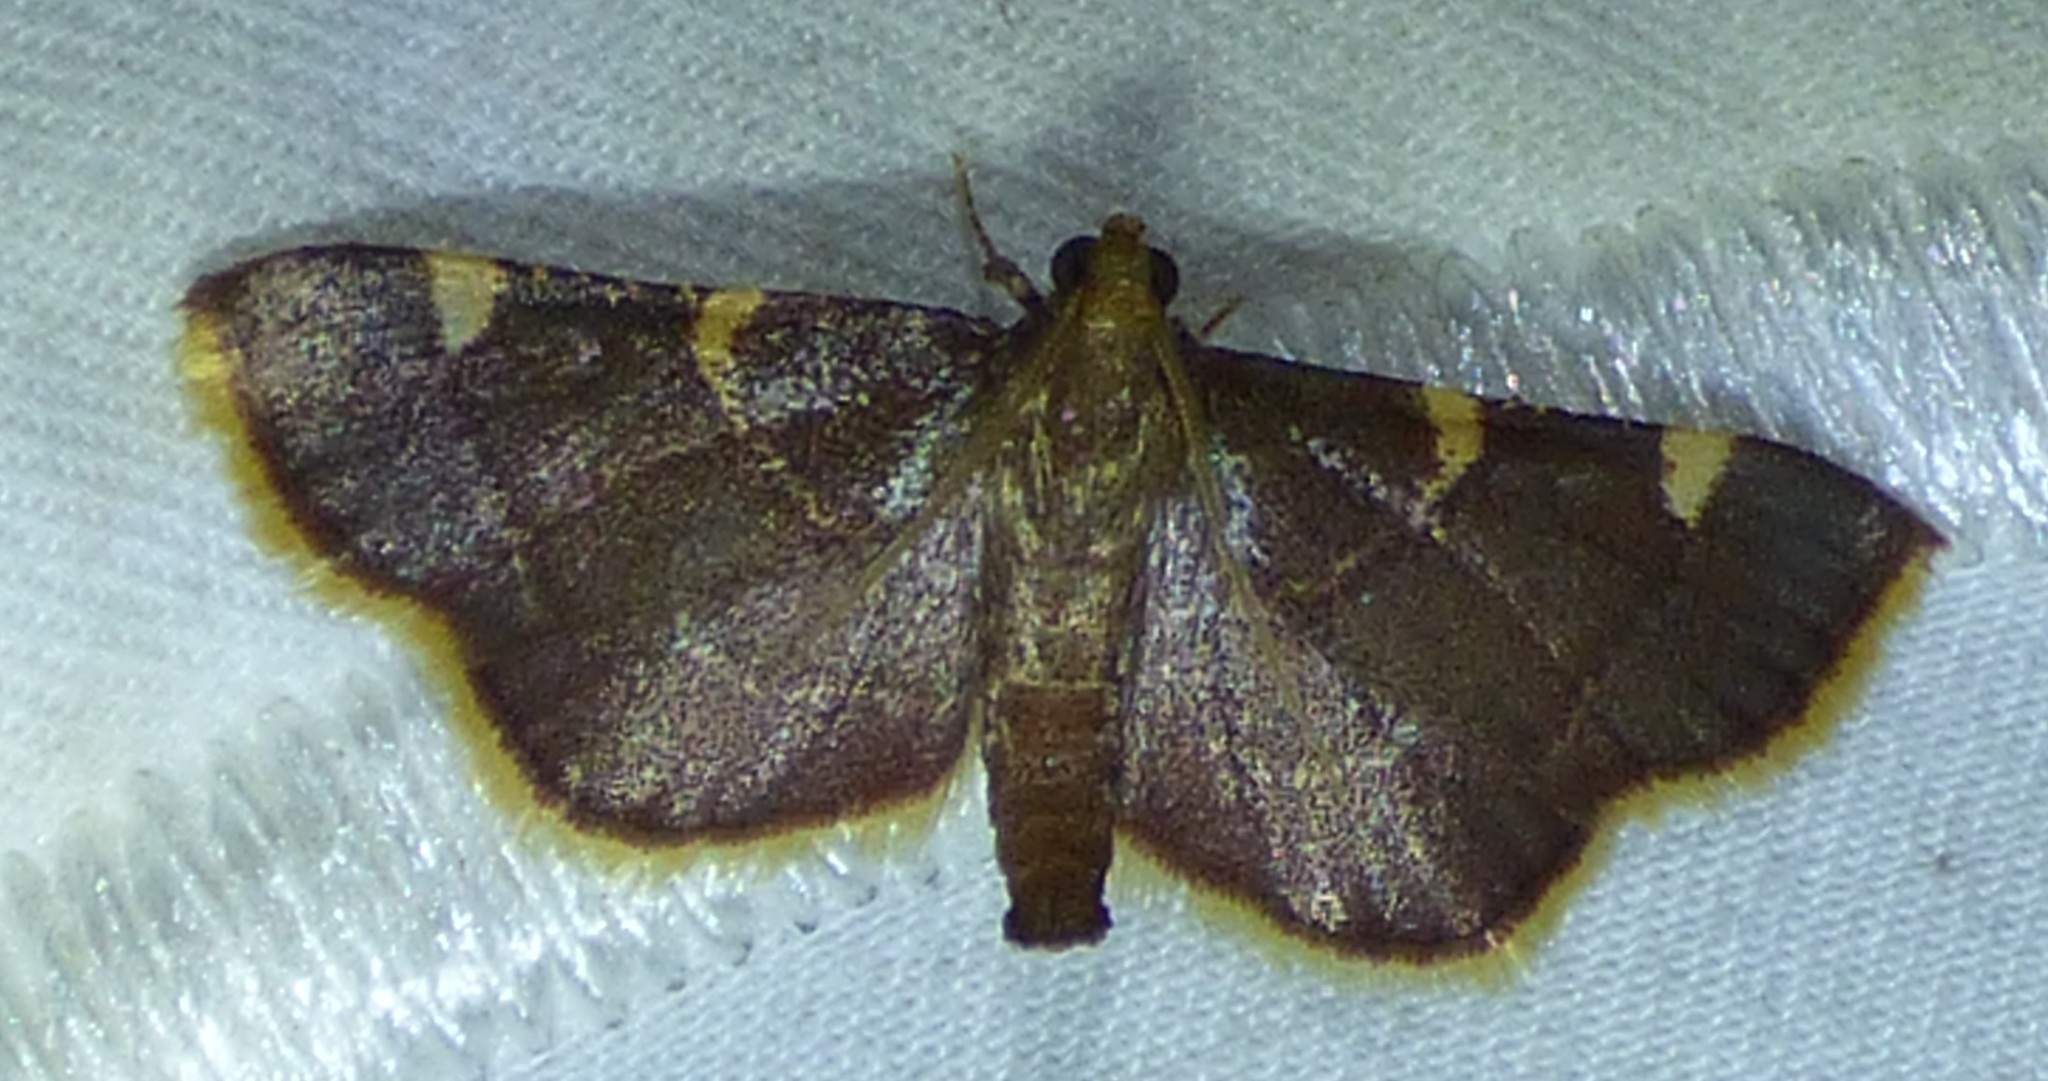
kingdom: Animalia
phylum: Arthropoda
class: Insecta
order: Lepidoptera
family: Pyralidae
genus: Hypsopygia
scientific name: Hypsopygia olinalis
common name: Yellow-fringed dolichomia moth
